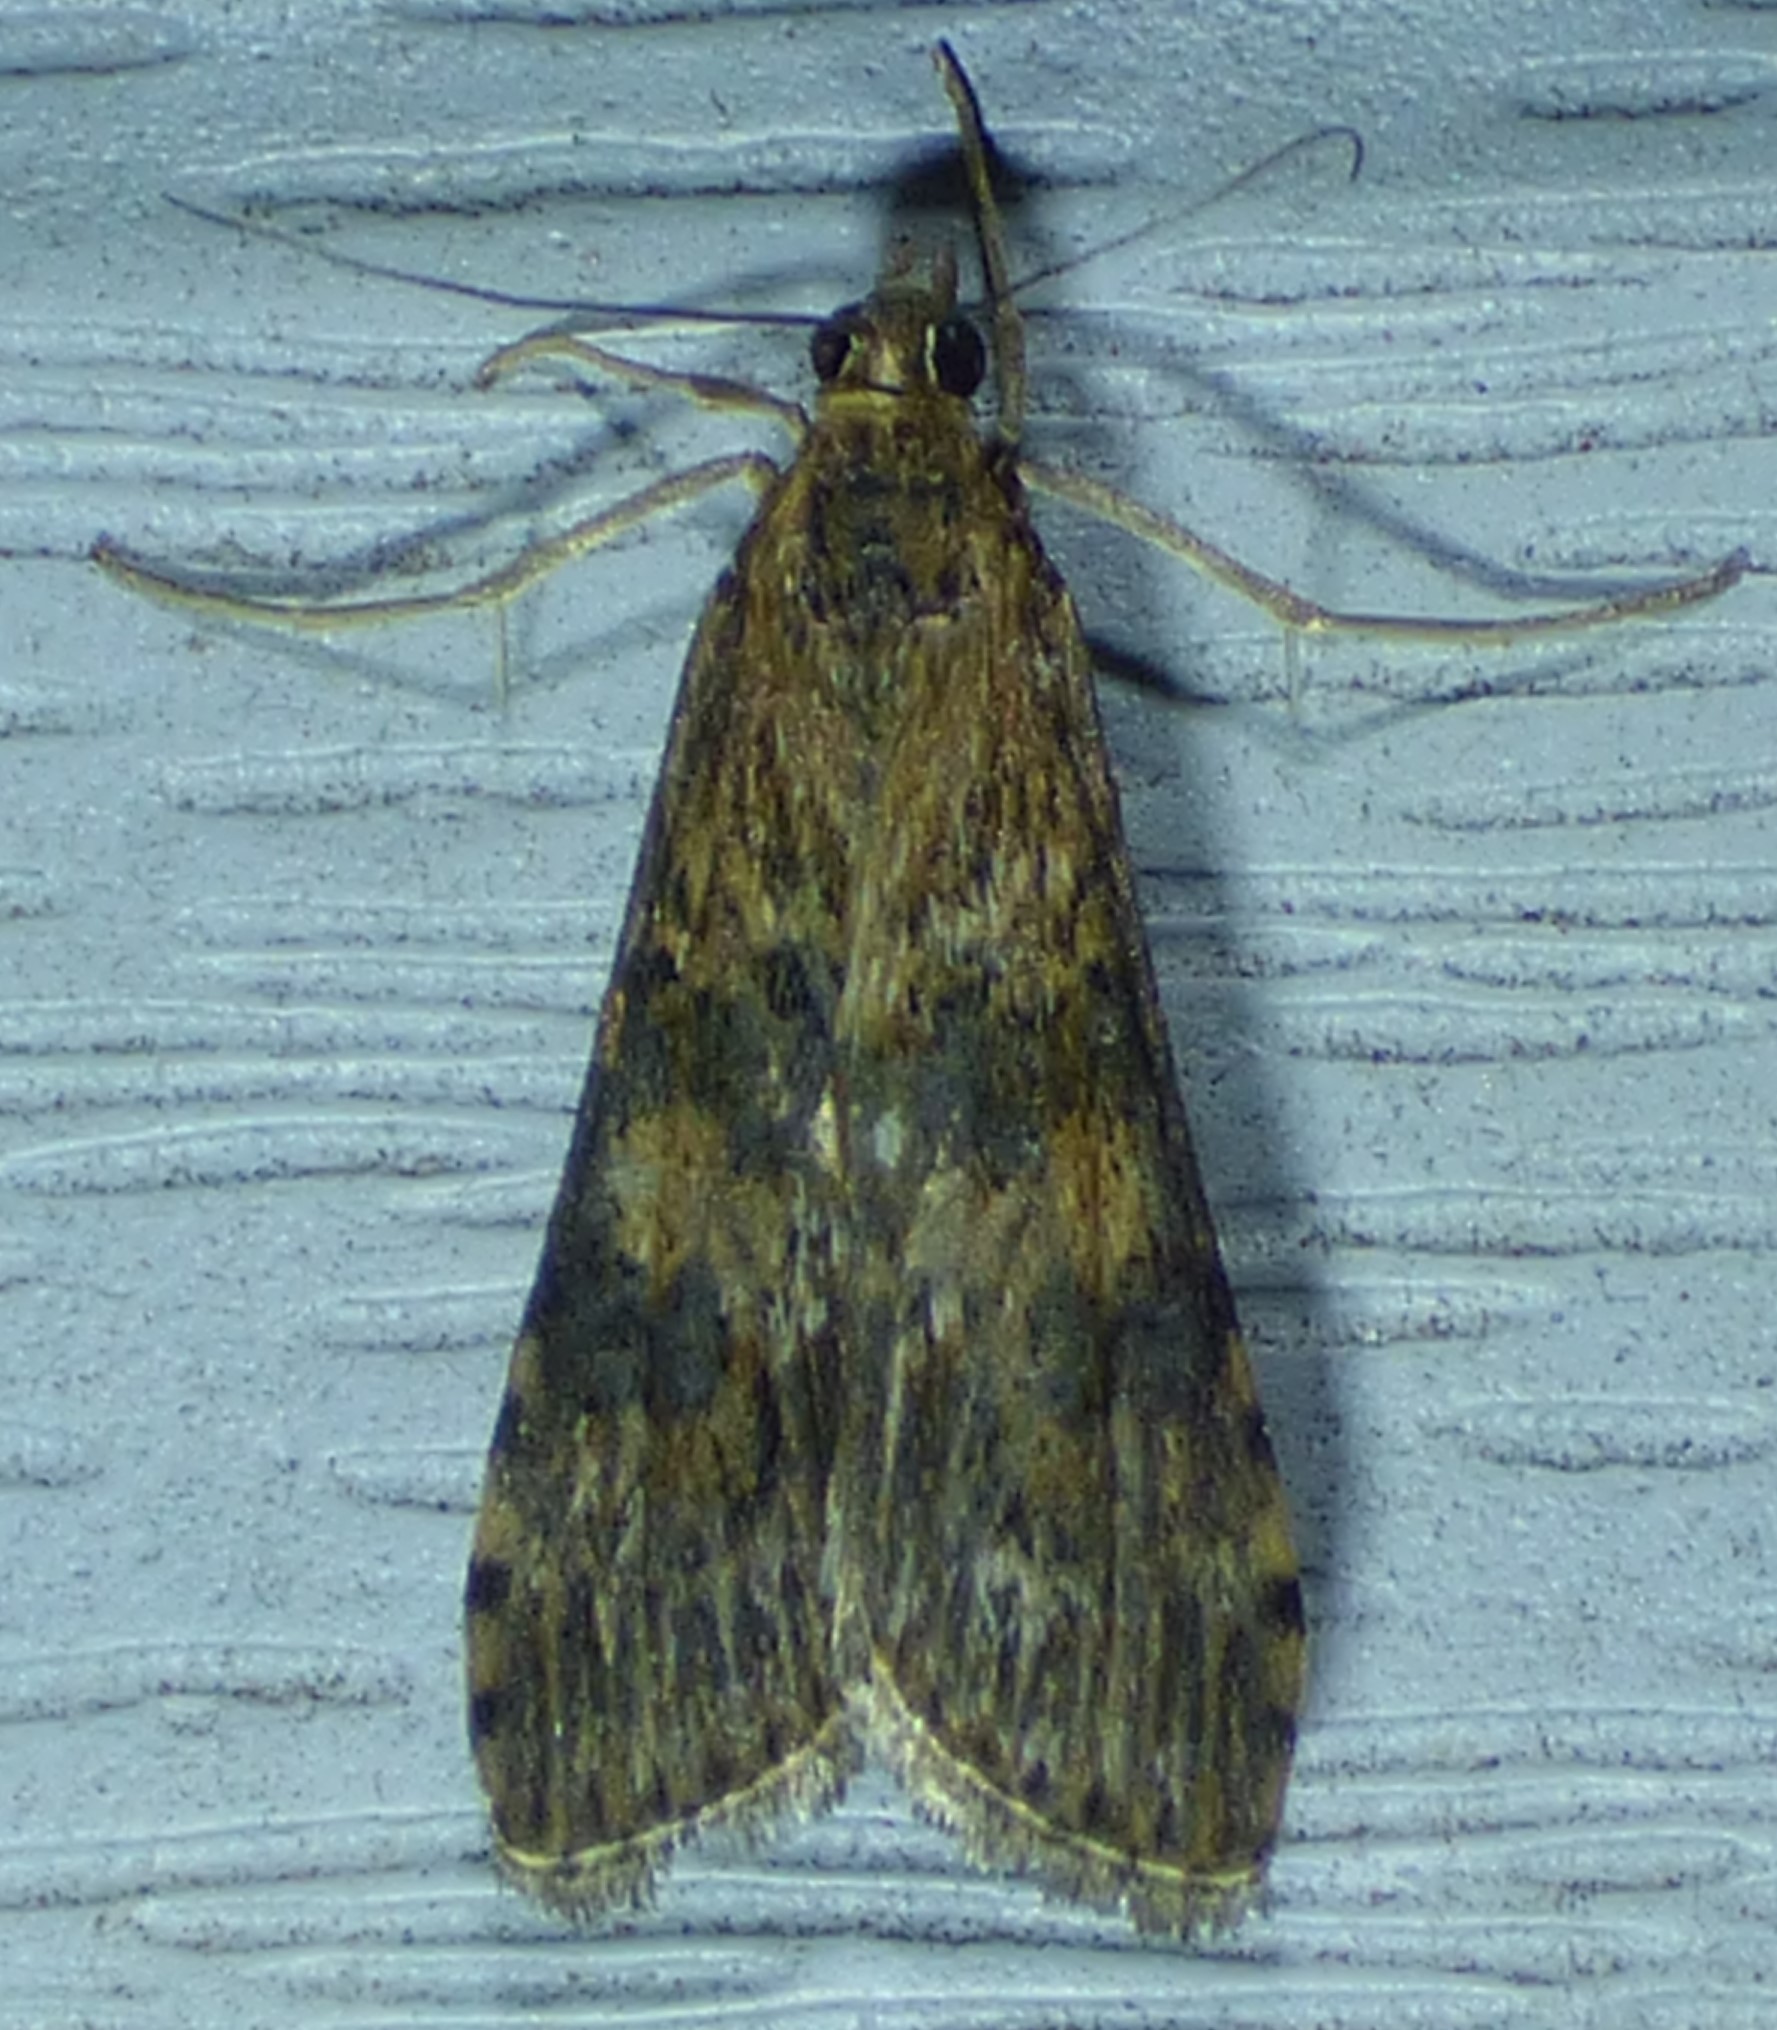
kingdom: Animalia
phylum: Arthropoda
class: Insecta
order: Lepidoptera
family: Crambidae
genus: Nomophila
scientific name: Nomophila nearctica
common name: American rush veneer
